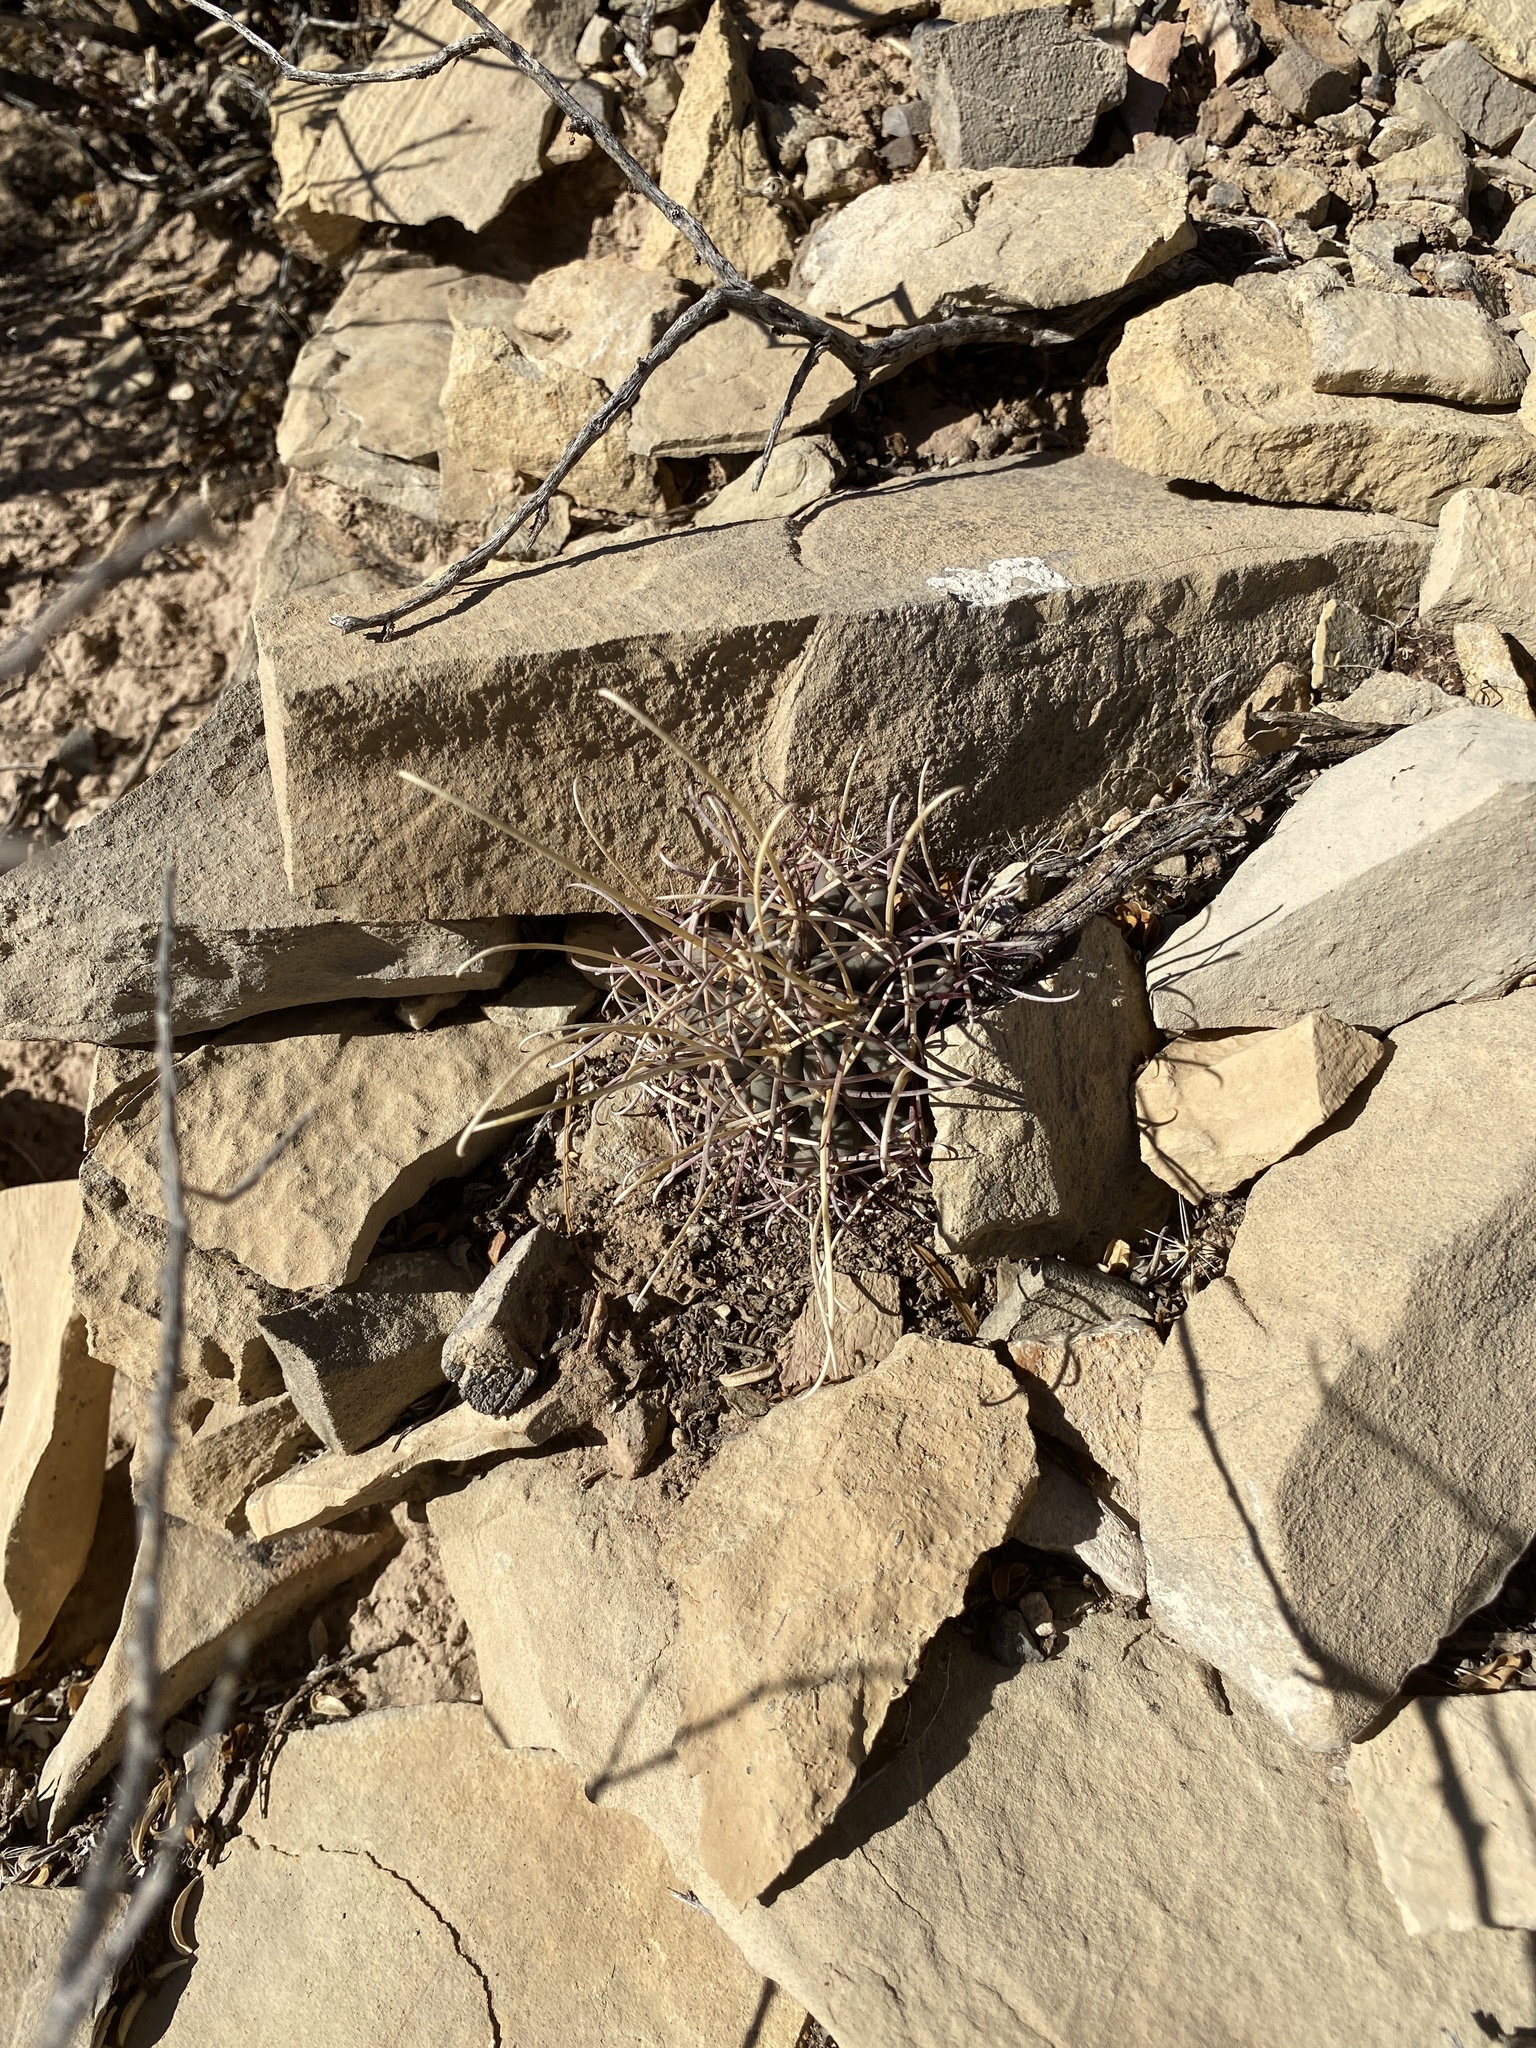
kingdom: Plantae
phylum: Tracheophyta
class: Magnoliopsida
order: Caryophyllales
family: Cactaceae
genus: Ferocactus
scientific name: Ferocactus uncinatus
